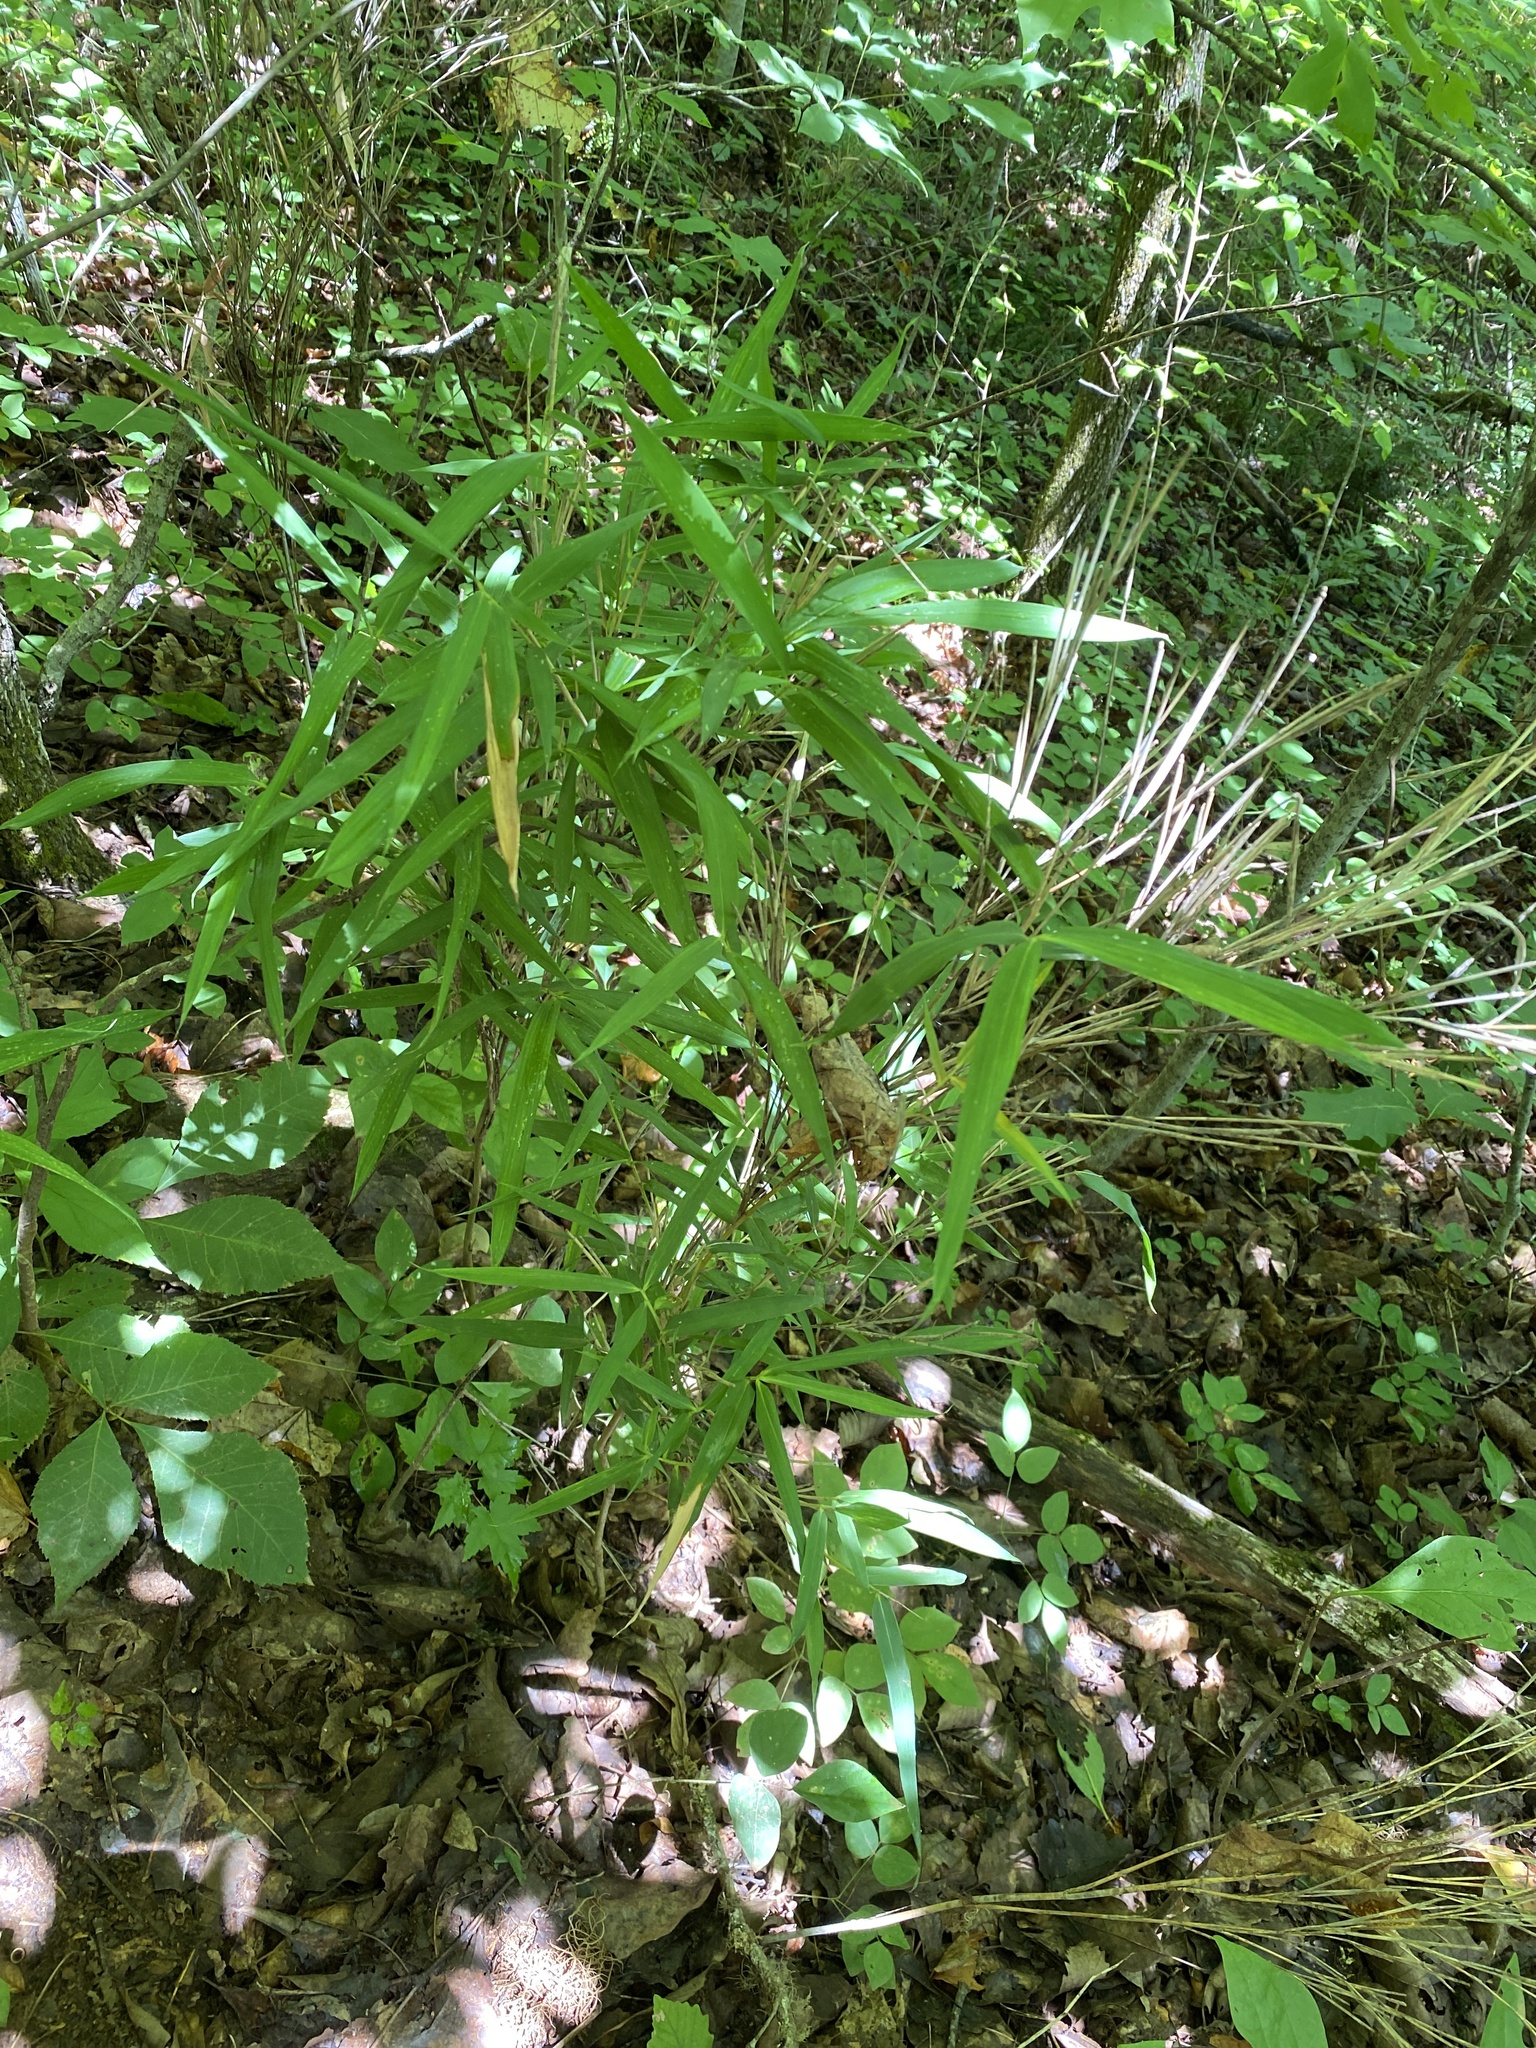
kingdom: Plantae
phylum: Tracheophyta
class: Liliopsida
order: Poales
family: Poaceae
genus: Arundinaria
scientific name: Arundinaria appalachiana
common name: Hill cane
